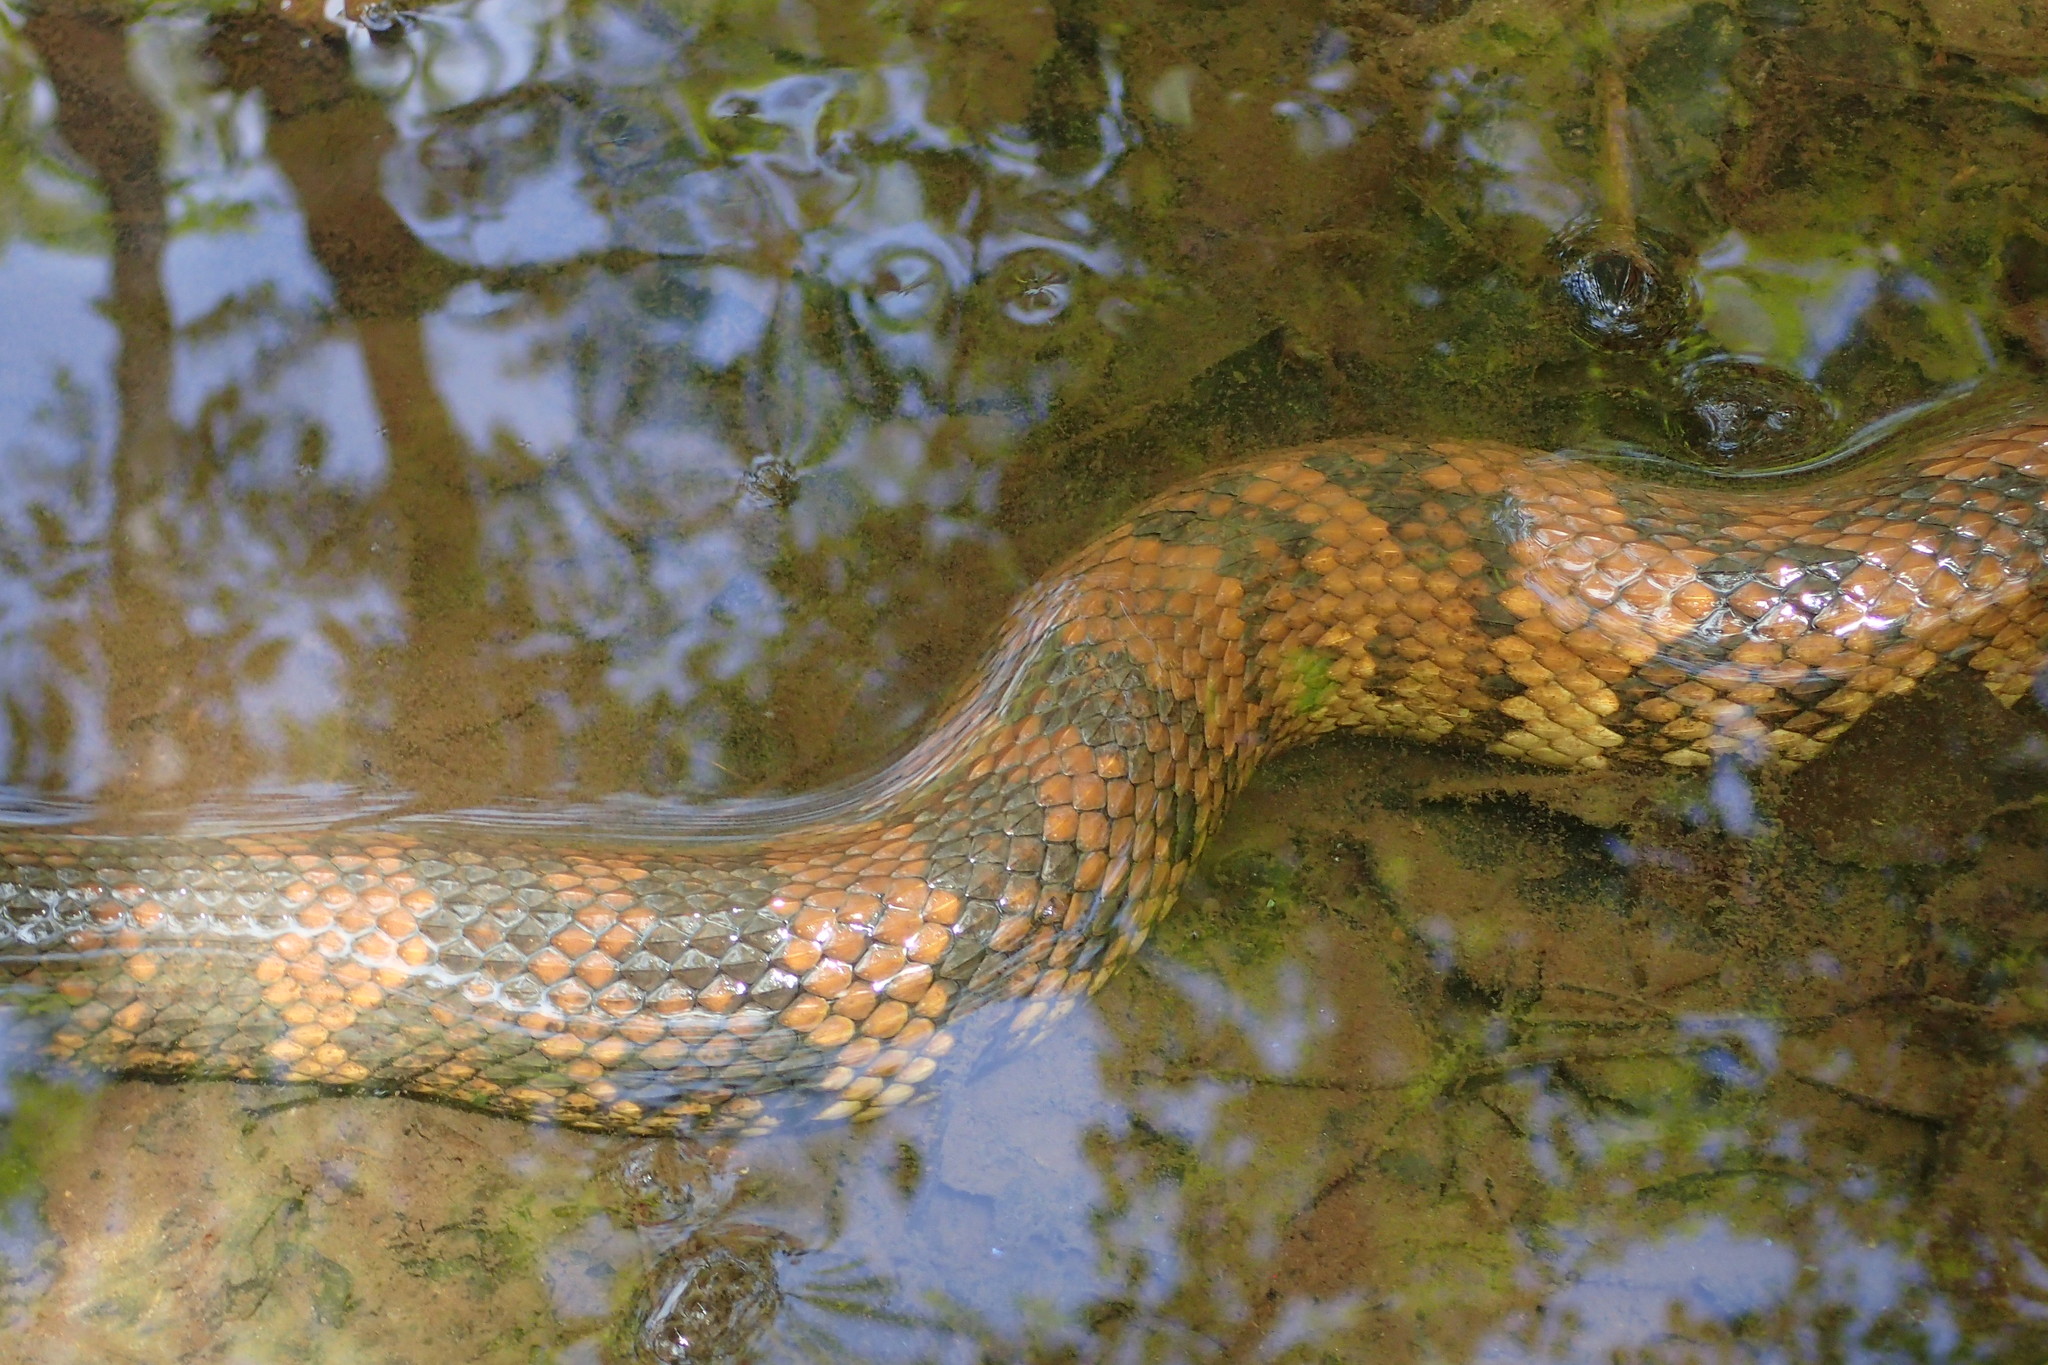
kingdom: Animalia
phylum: Chordata
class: Squamata
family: Viperidae
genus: Agkistrodon
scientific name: Agkistrodon piscivorus
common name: Cottonmouth
